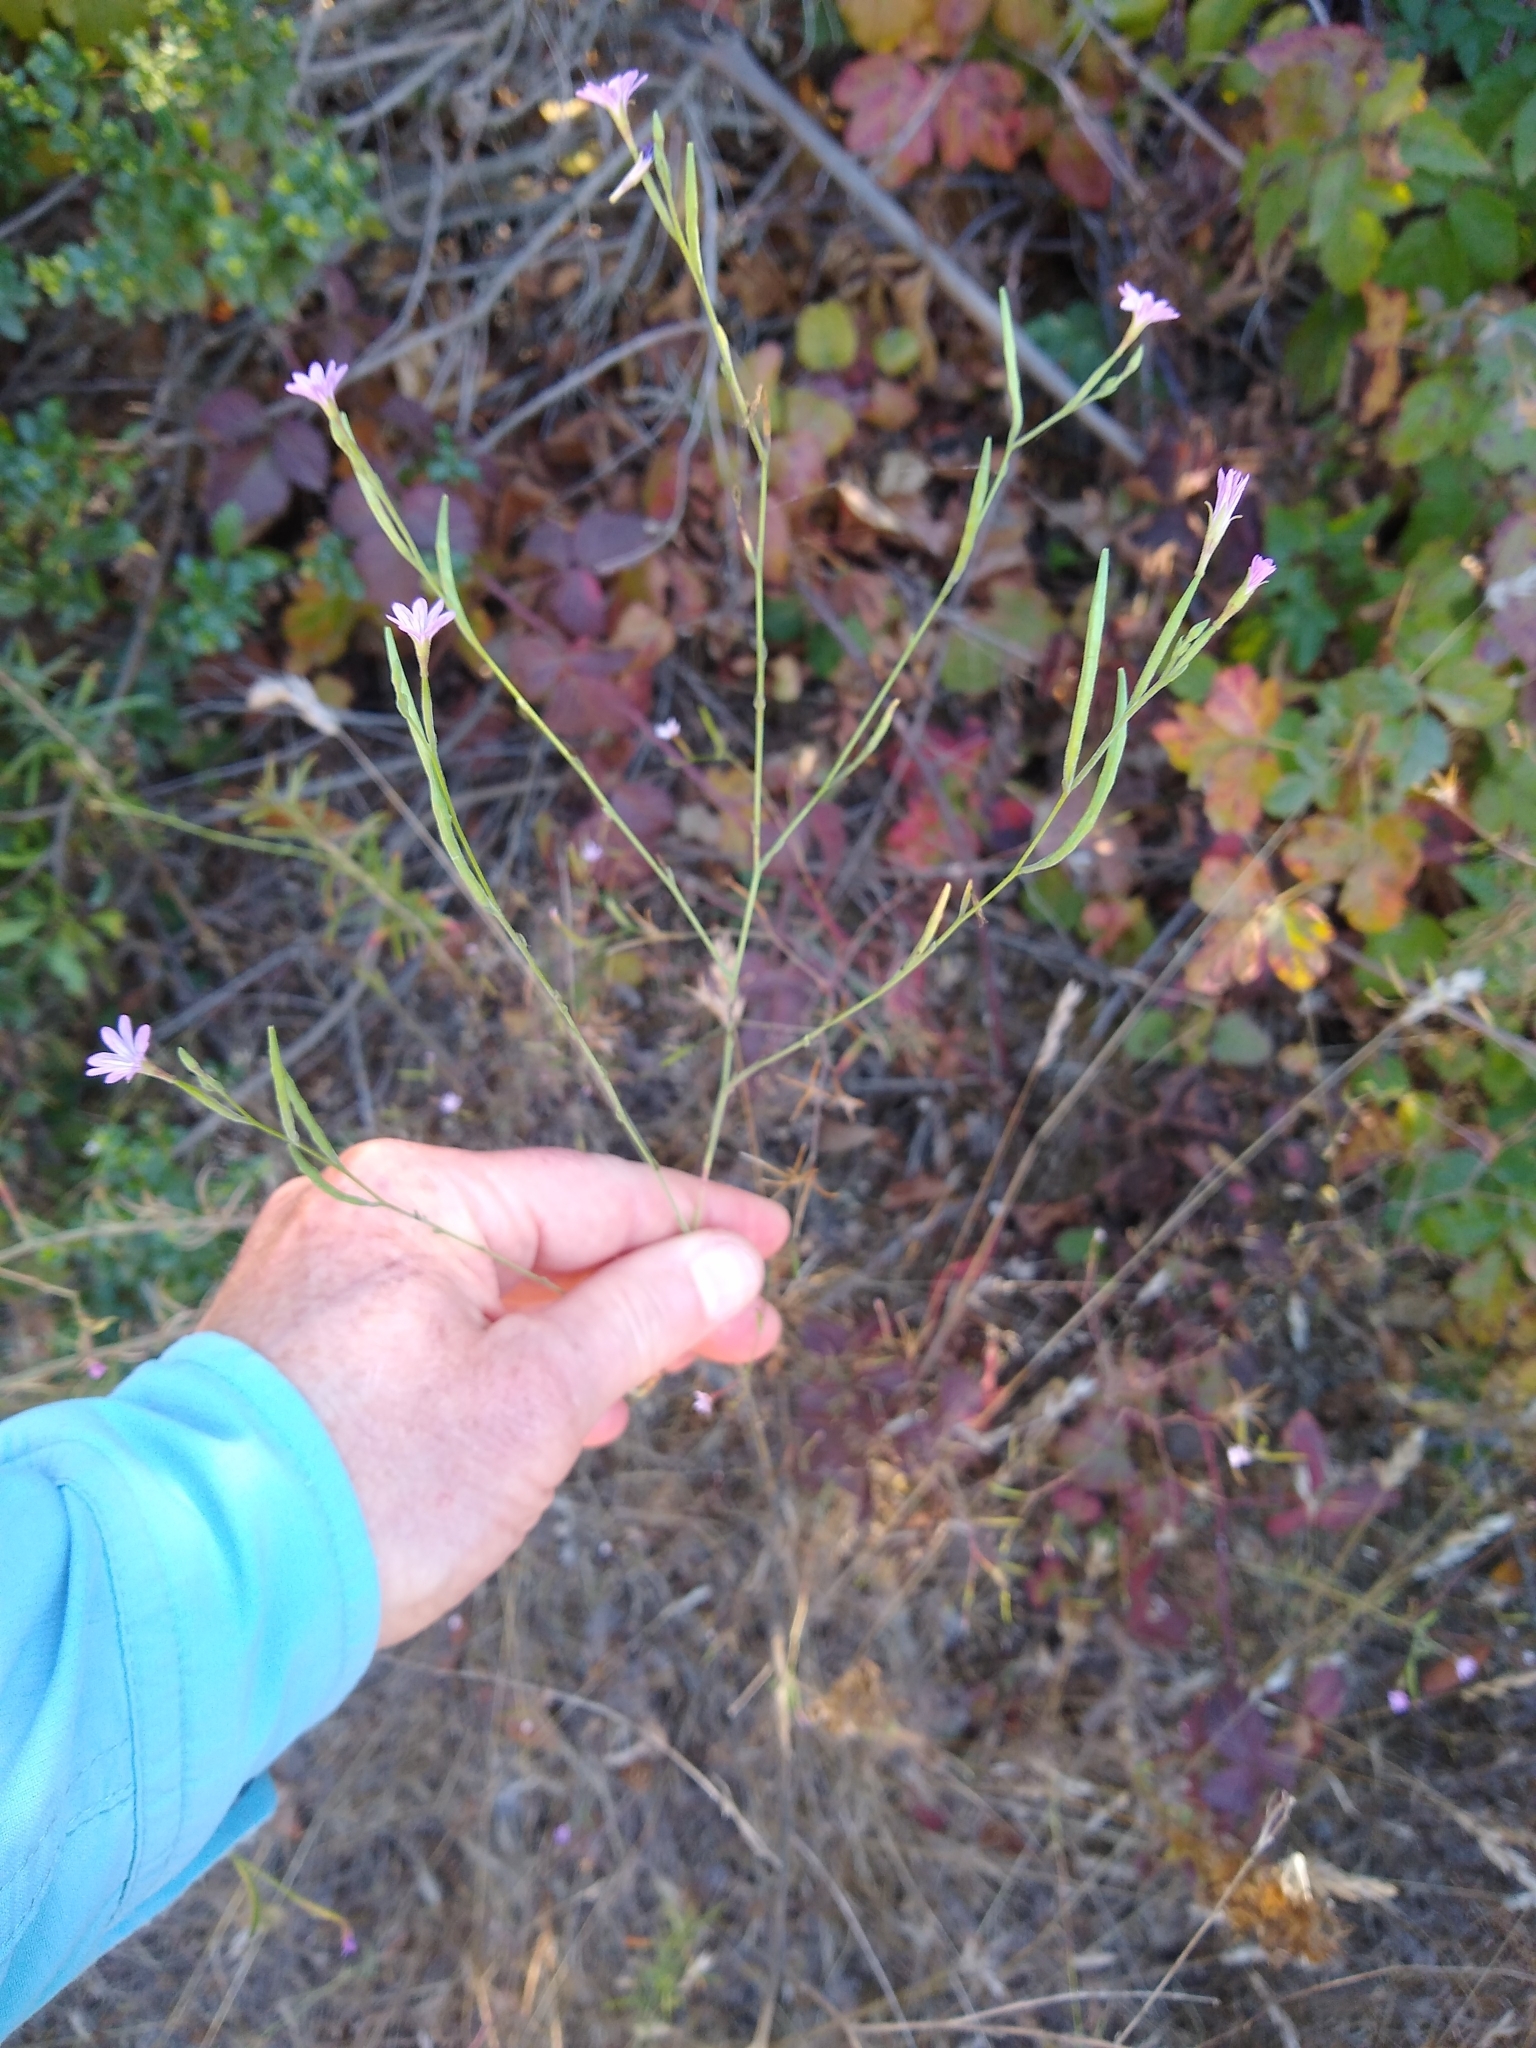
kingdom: Plantae
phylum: Tracheophyta
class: Magnoliopsida
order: Myrtales
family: Onagraceae
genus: Epilobium
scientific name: Epilobium brachycarpum
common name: Annual willowherb
